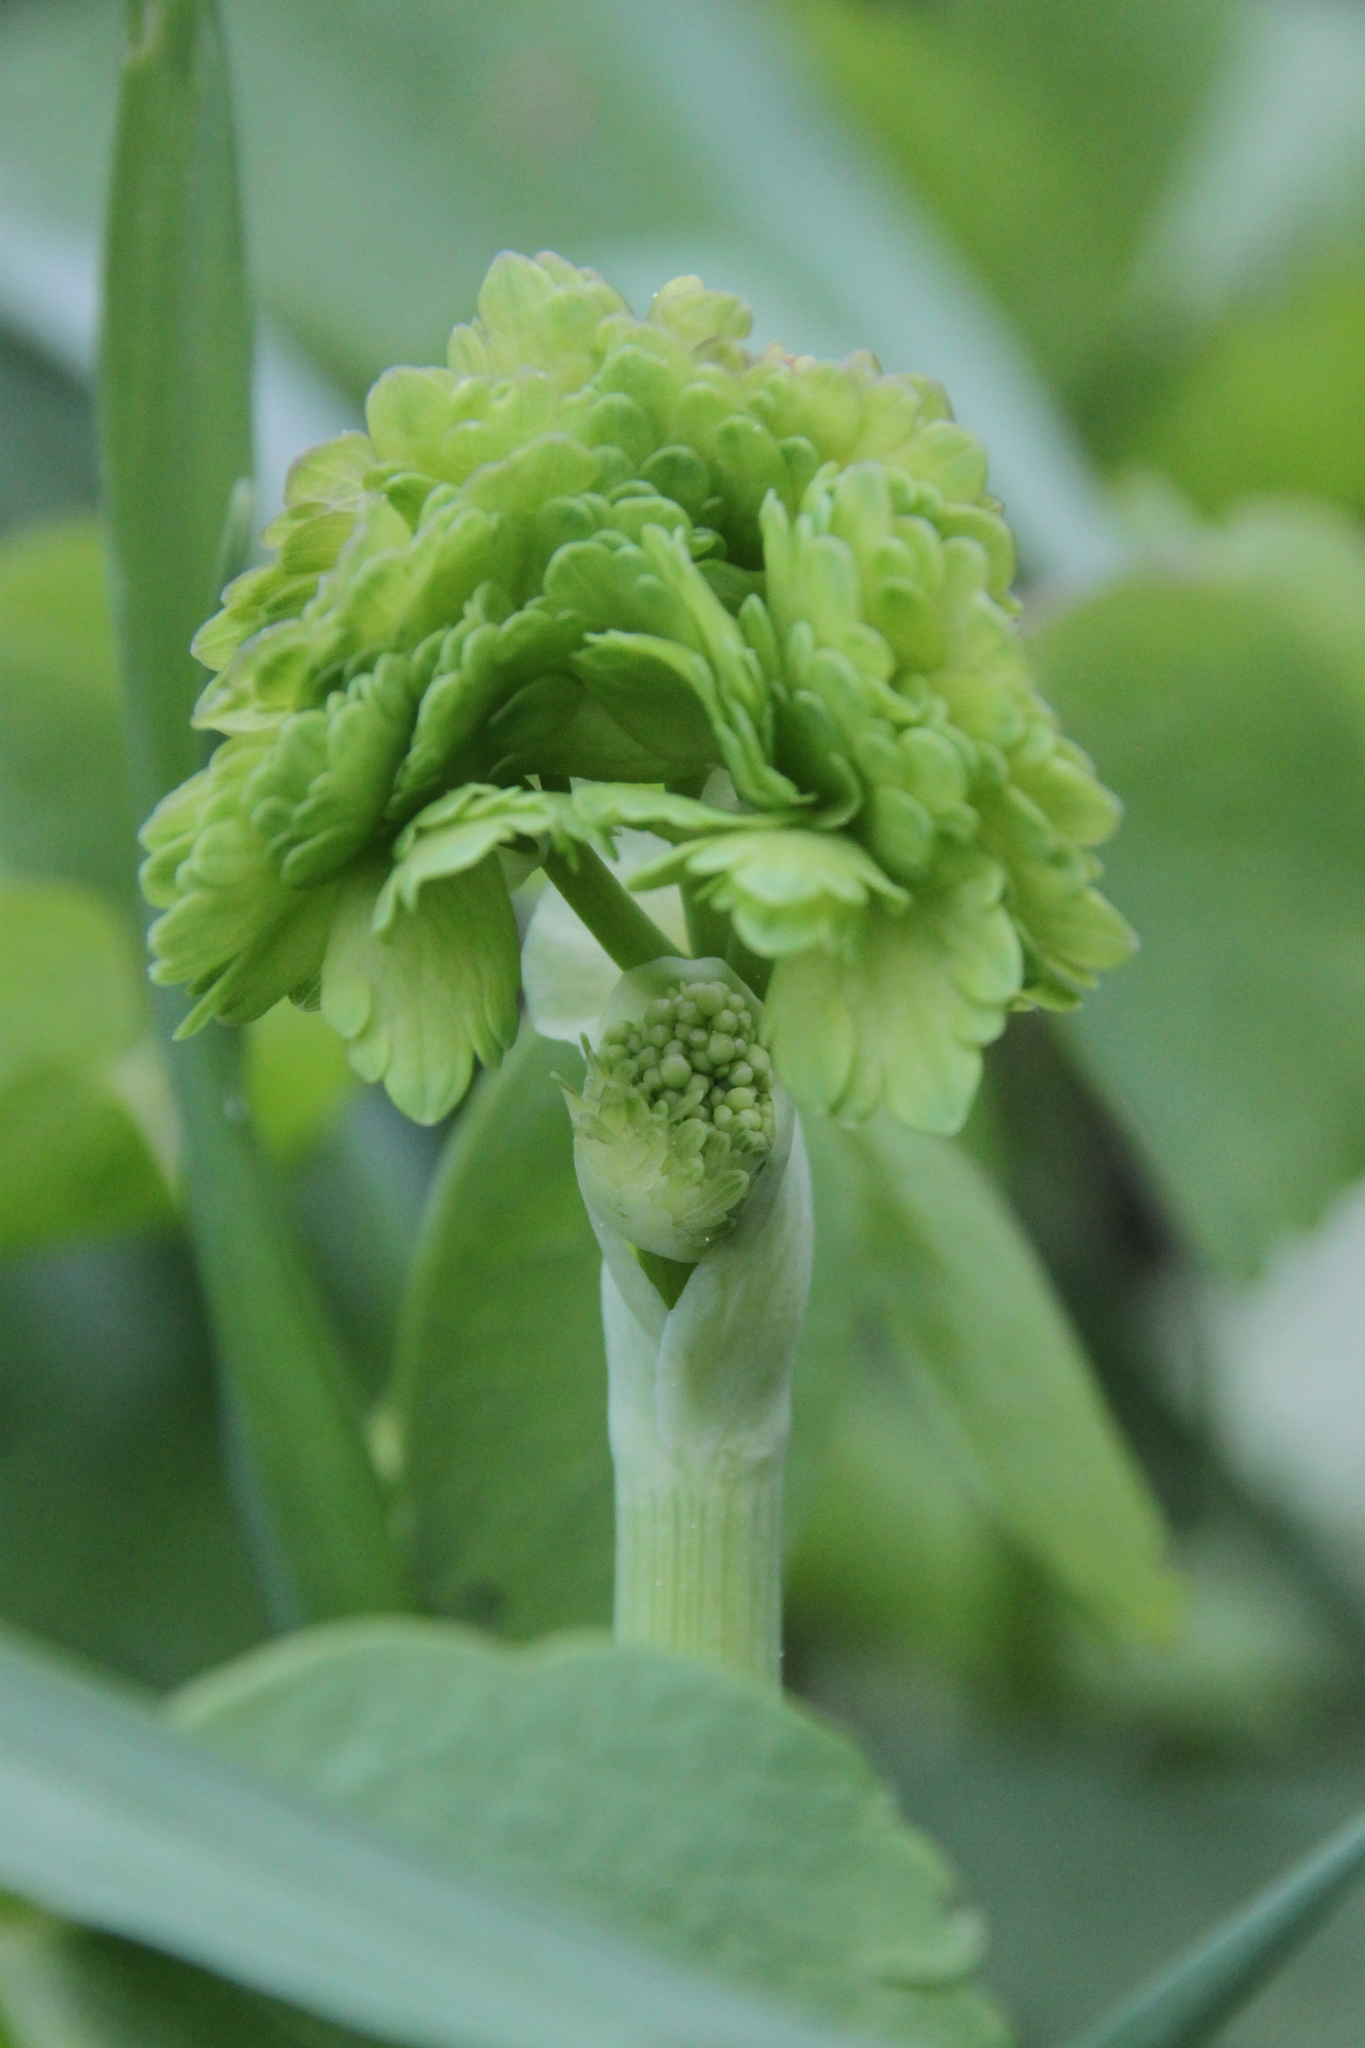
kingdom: Plantae
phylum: Tracheophyta
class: Magnoliopsida
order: Ranunculales
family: Ranunculaceae
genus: Thalictrum
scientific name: Thalictrum aquilegiifolium
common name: French meadow-rue
